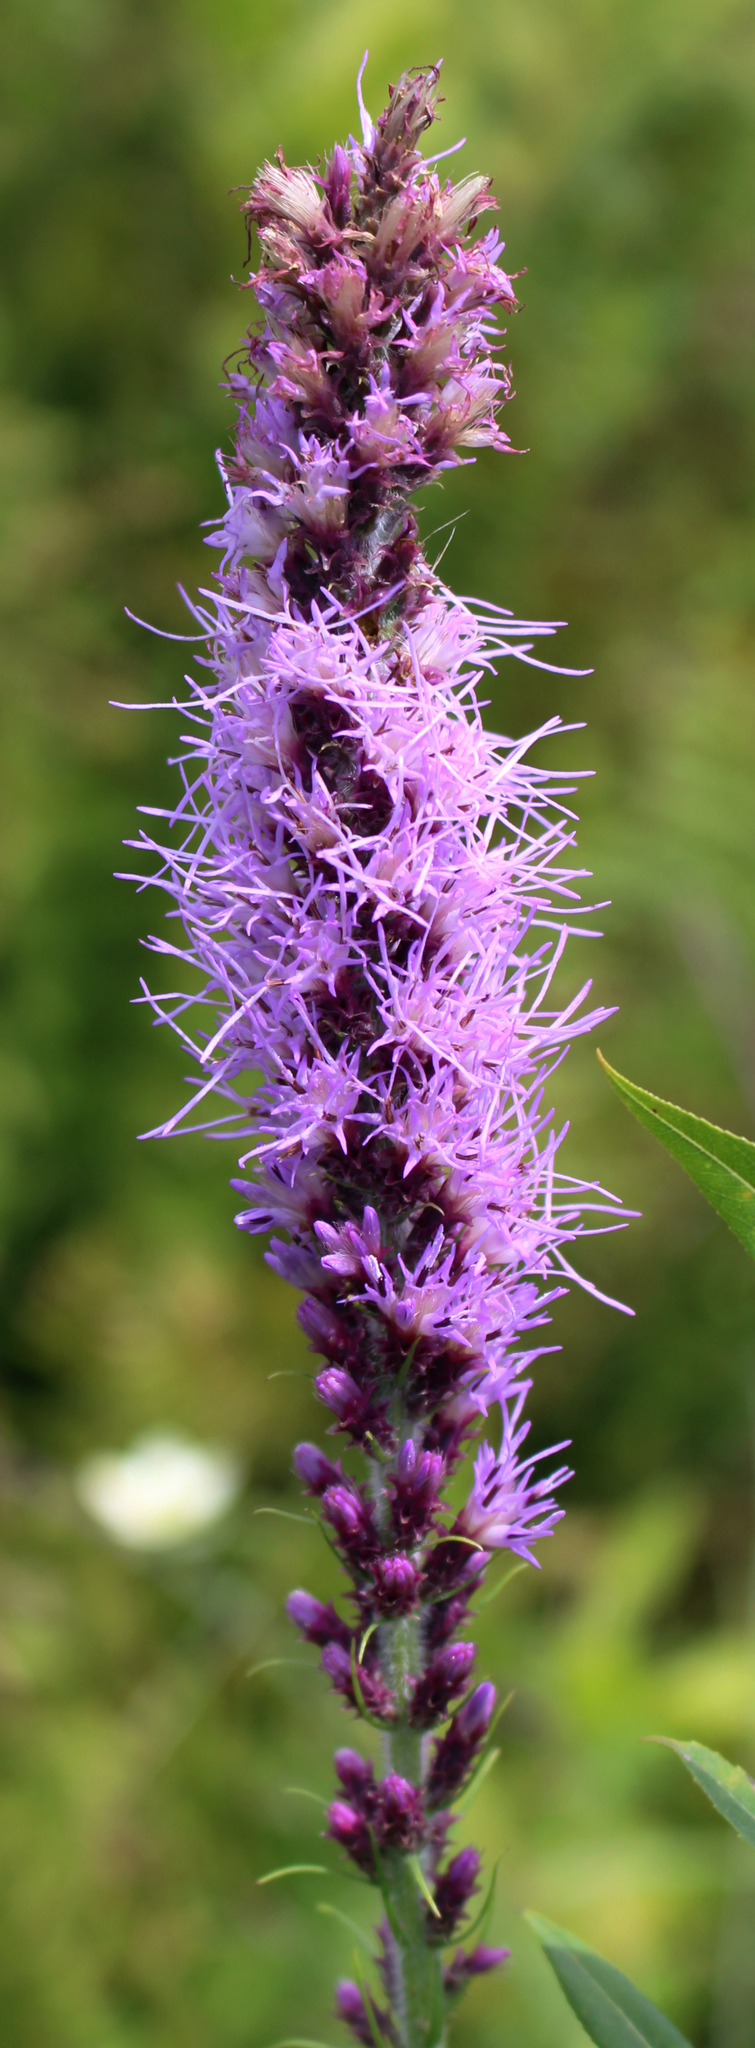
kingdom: Plantae
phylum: Tracheophyta
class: Magnoliopsida
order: Asterales
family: Asteraceae
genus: Liatris
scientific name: Liatris pycnostachya
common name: Cattail gayfeather
